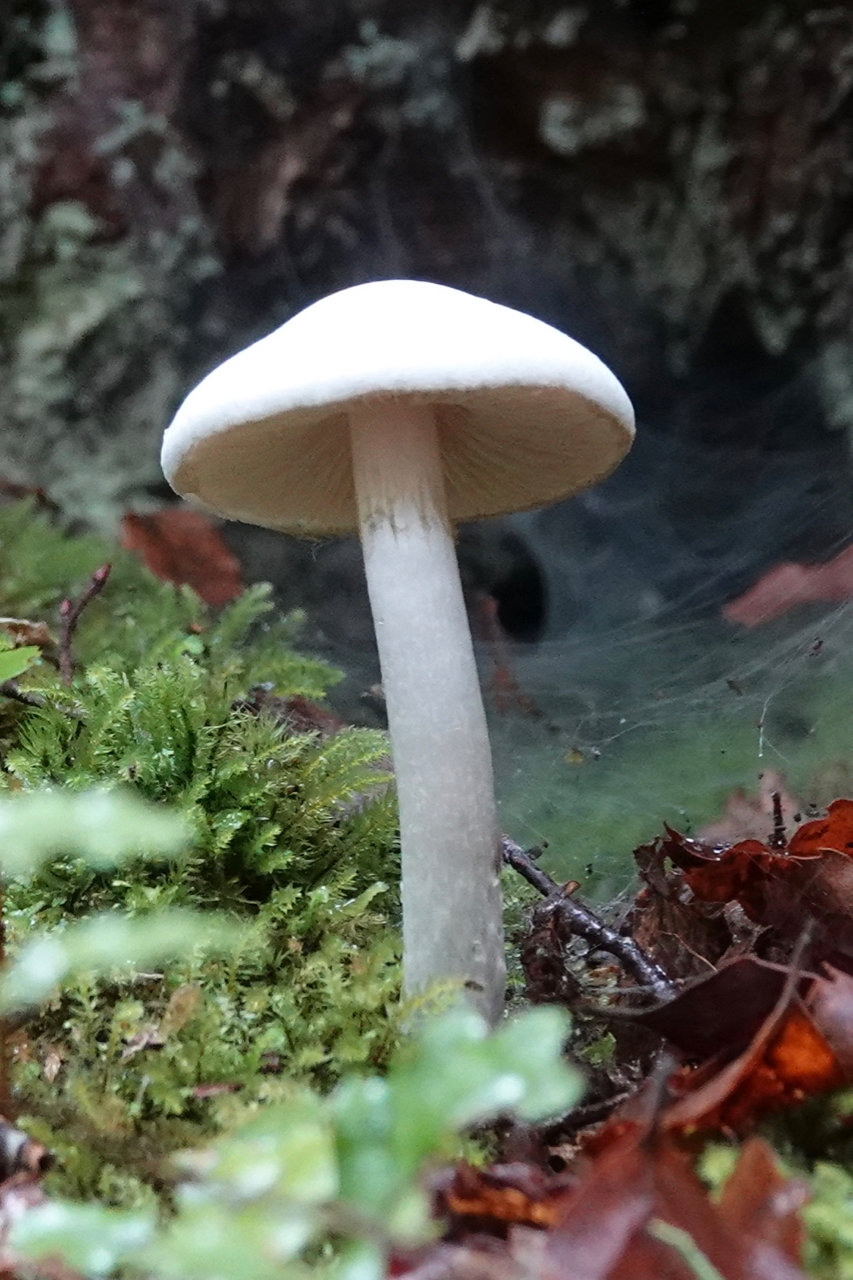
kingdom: Fungi
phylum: Basidiomycota
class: Agaricomycetes
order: Agaricales
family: Cortinariaceae
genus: Thaxterogaster
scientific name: Thaxterogaster mariae
